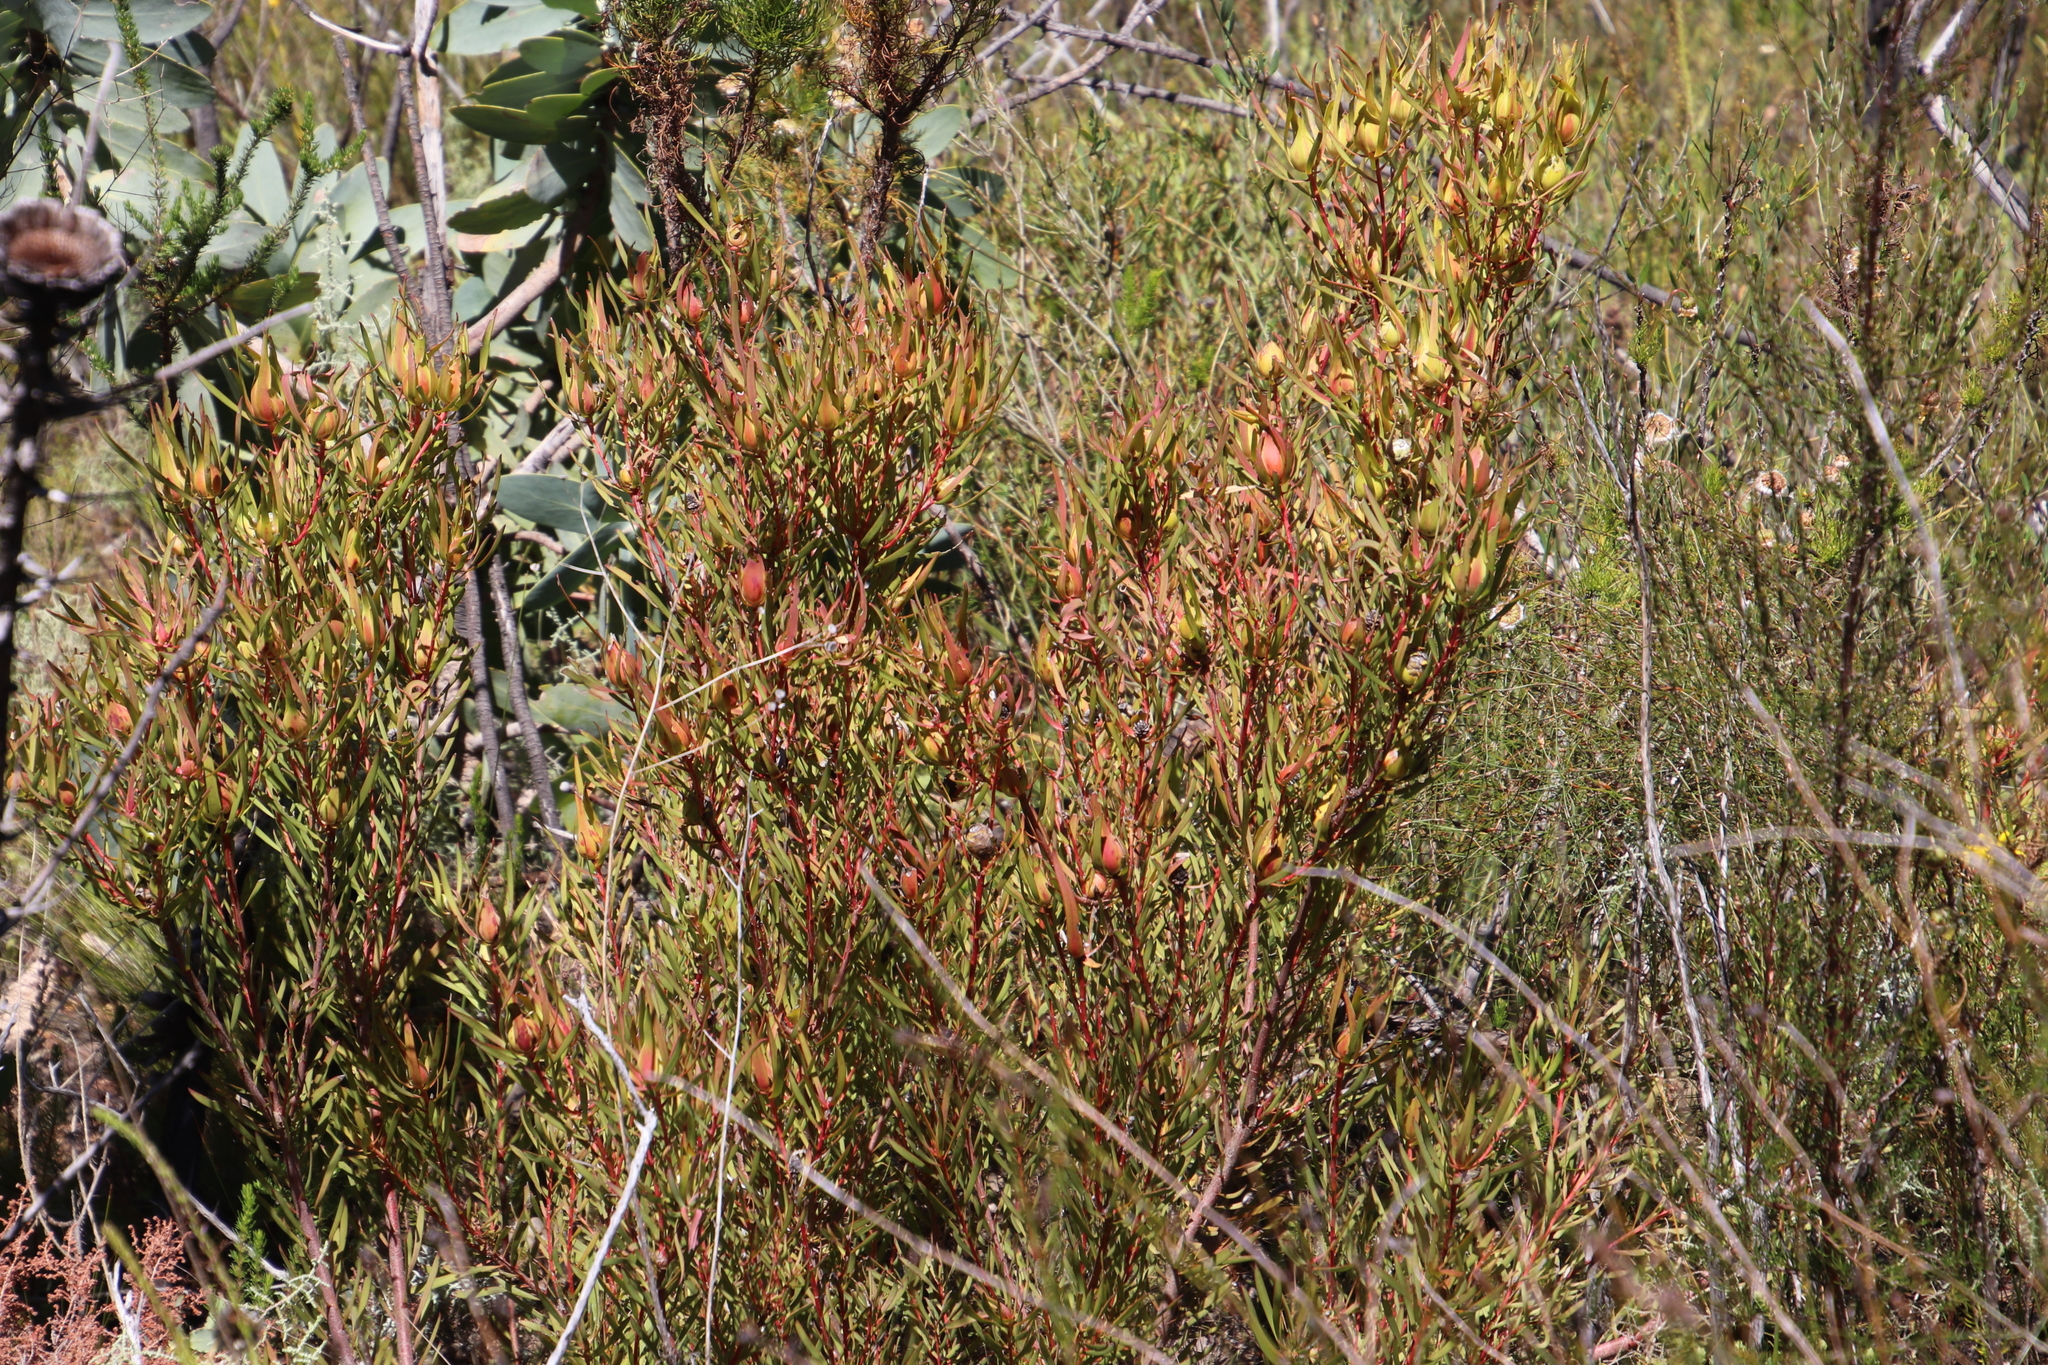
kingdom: Plantae
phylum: Tracheophyta
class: Magnoliopsida
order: Proteales
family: Proteaceae
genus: Leucadendron
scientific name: Leucadendron salignum
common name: Common sunshine conebush
